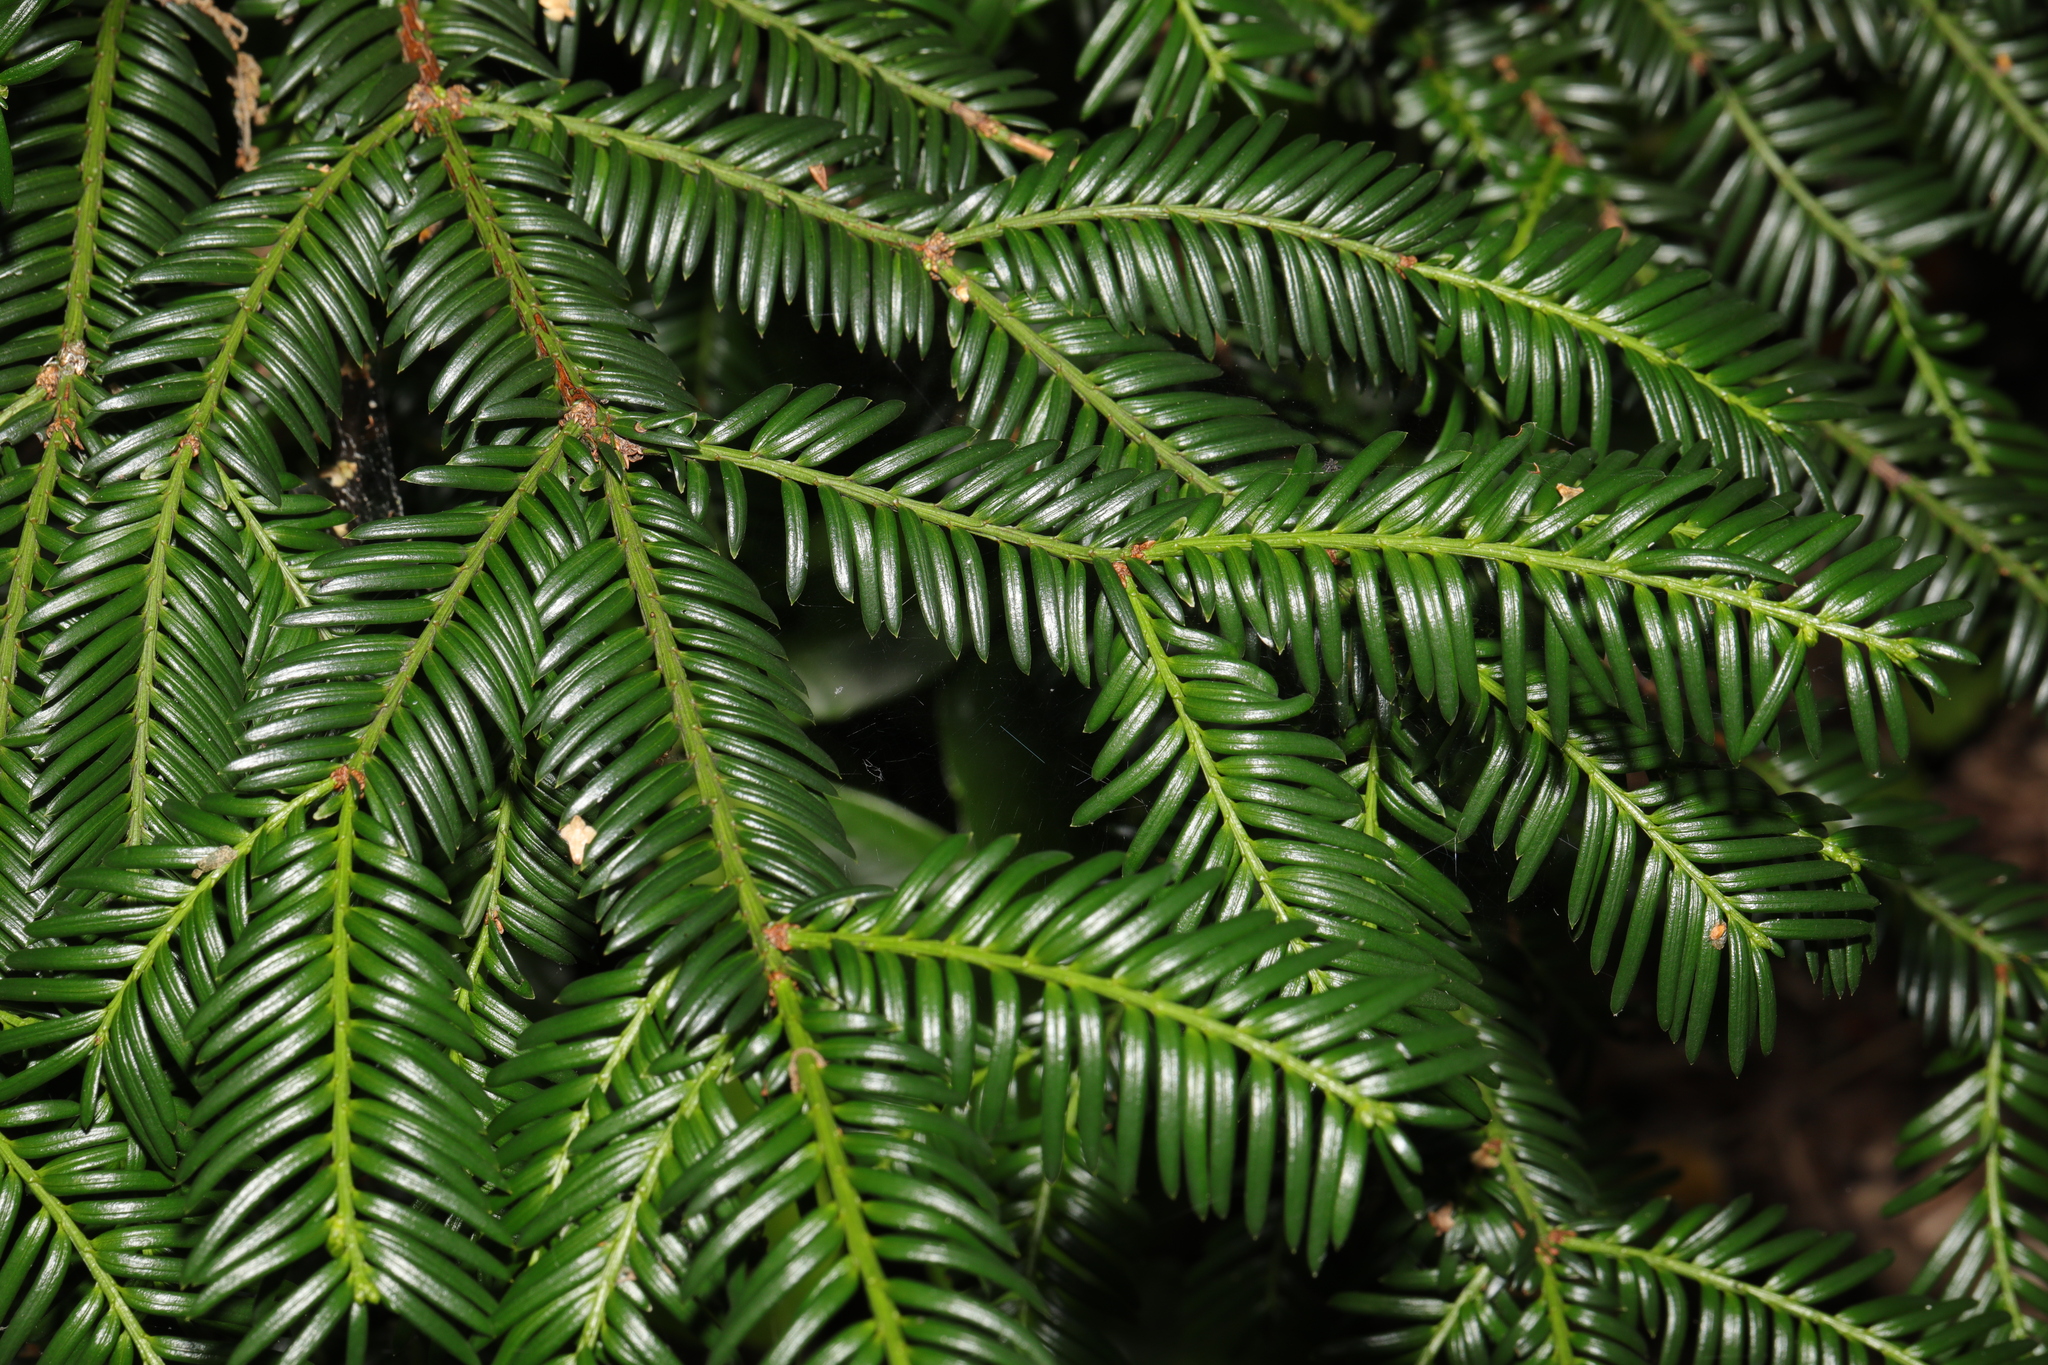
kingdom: Plantae
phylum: Tracheophyta
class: Pinopsida
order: Pinales
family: Taxaceae
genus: Taxus
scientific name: Taxus baccata
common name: Yew
